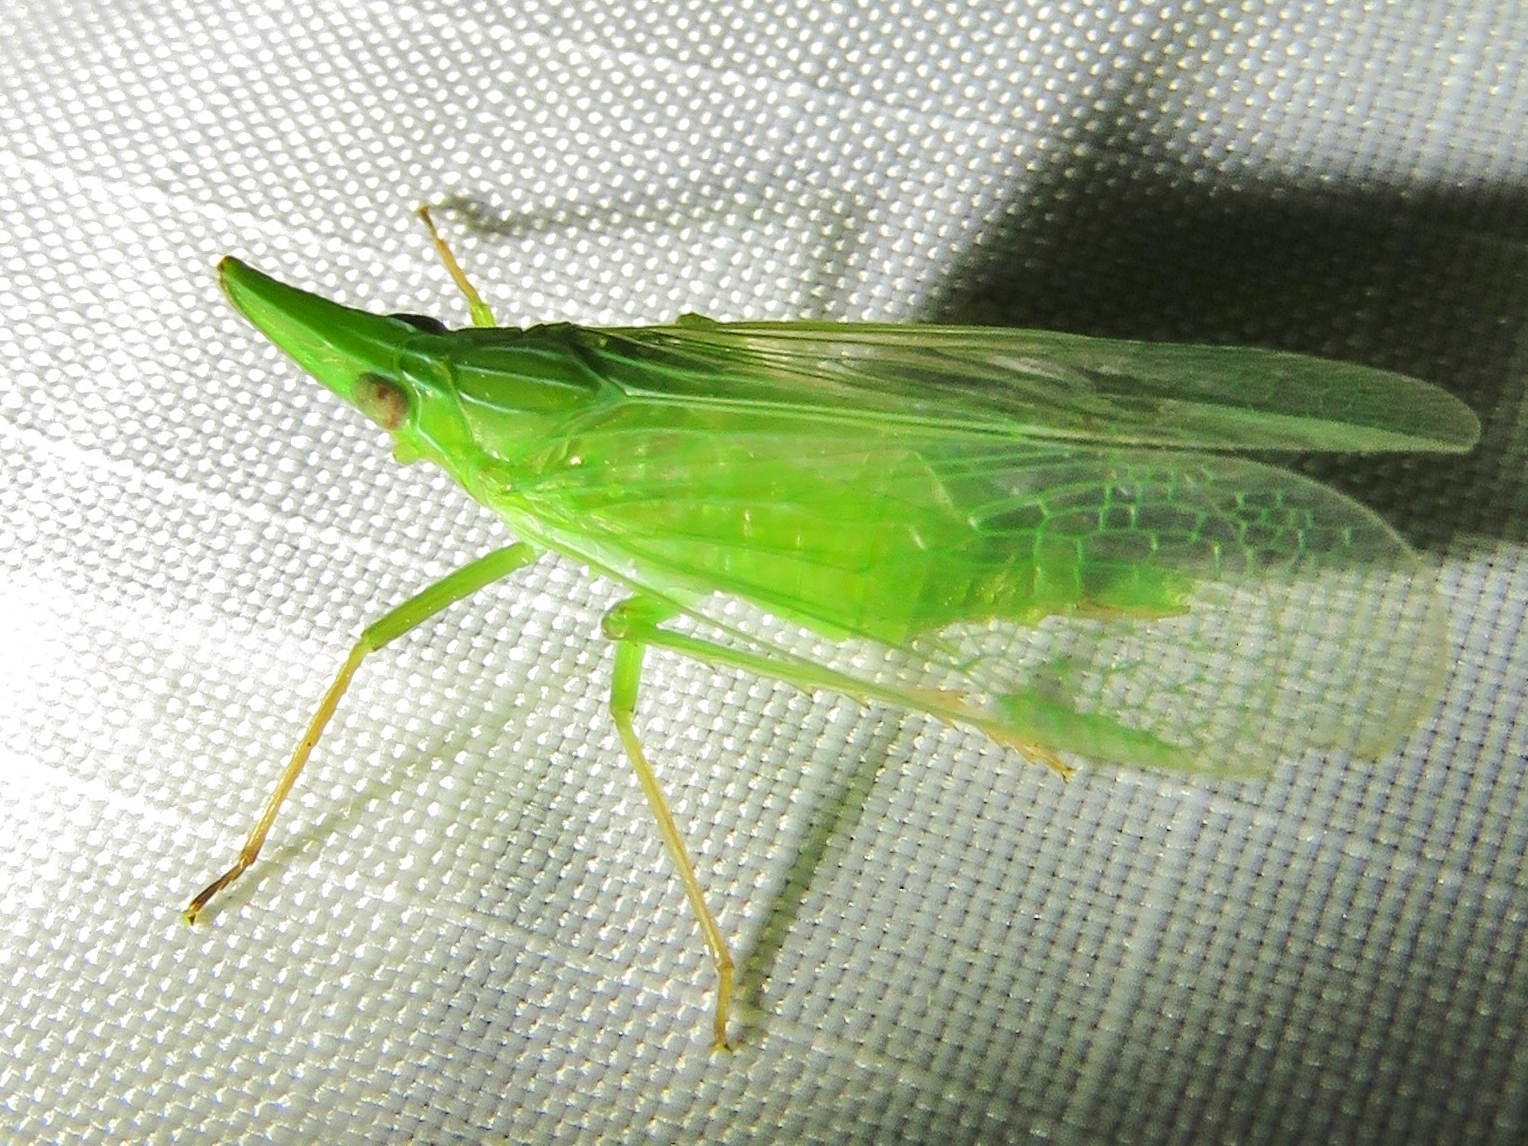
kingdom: Animalia
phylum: Arthropoda
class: Insecta
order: Hemiptera
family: Dictyopharidae
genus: Rhynchomitra
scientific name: Rhynchomitra microrhina
